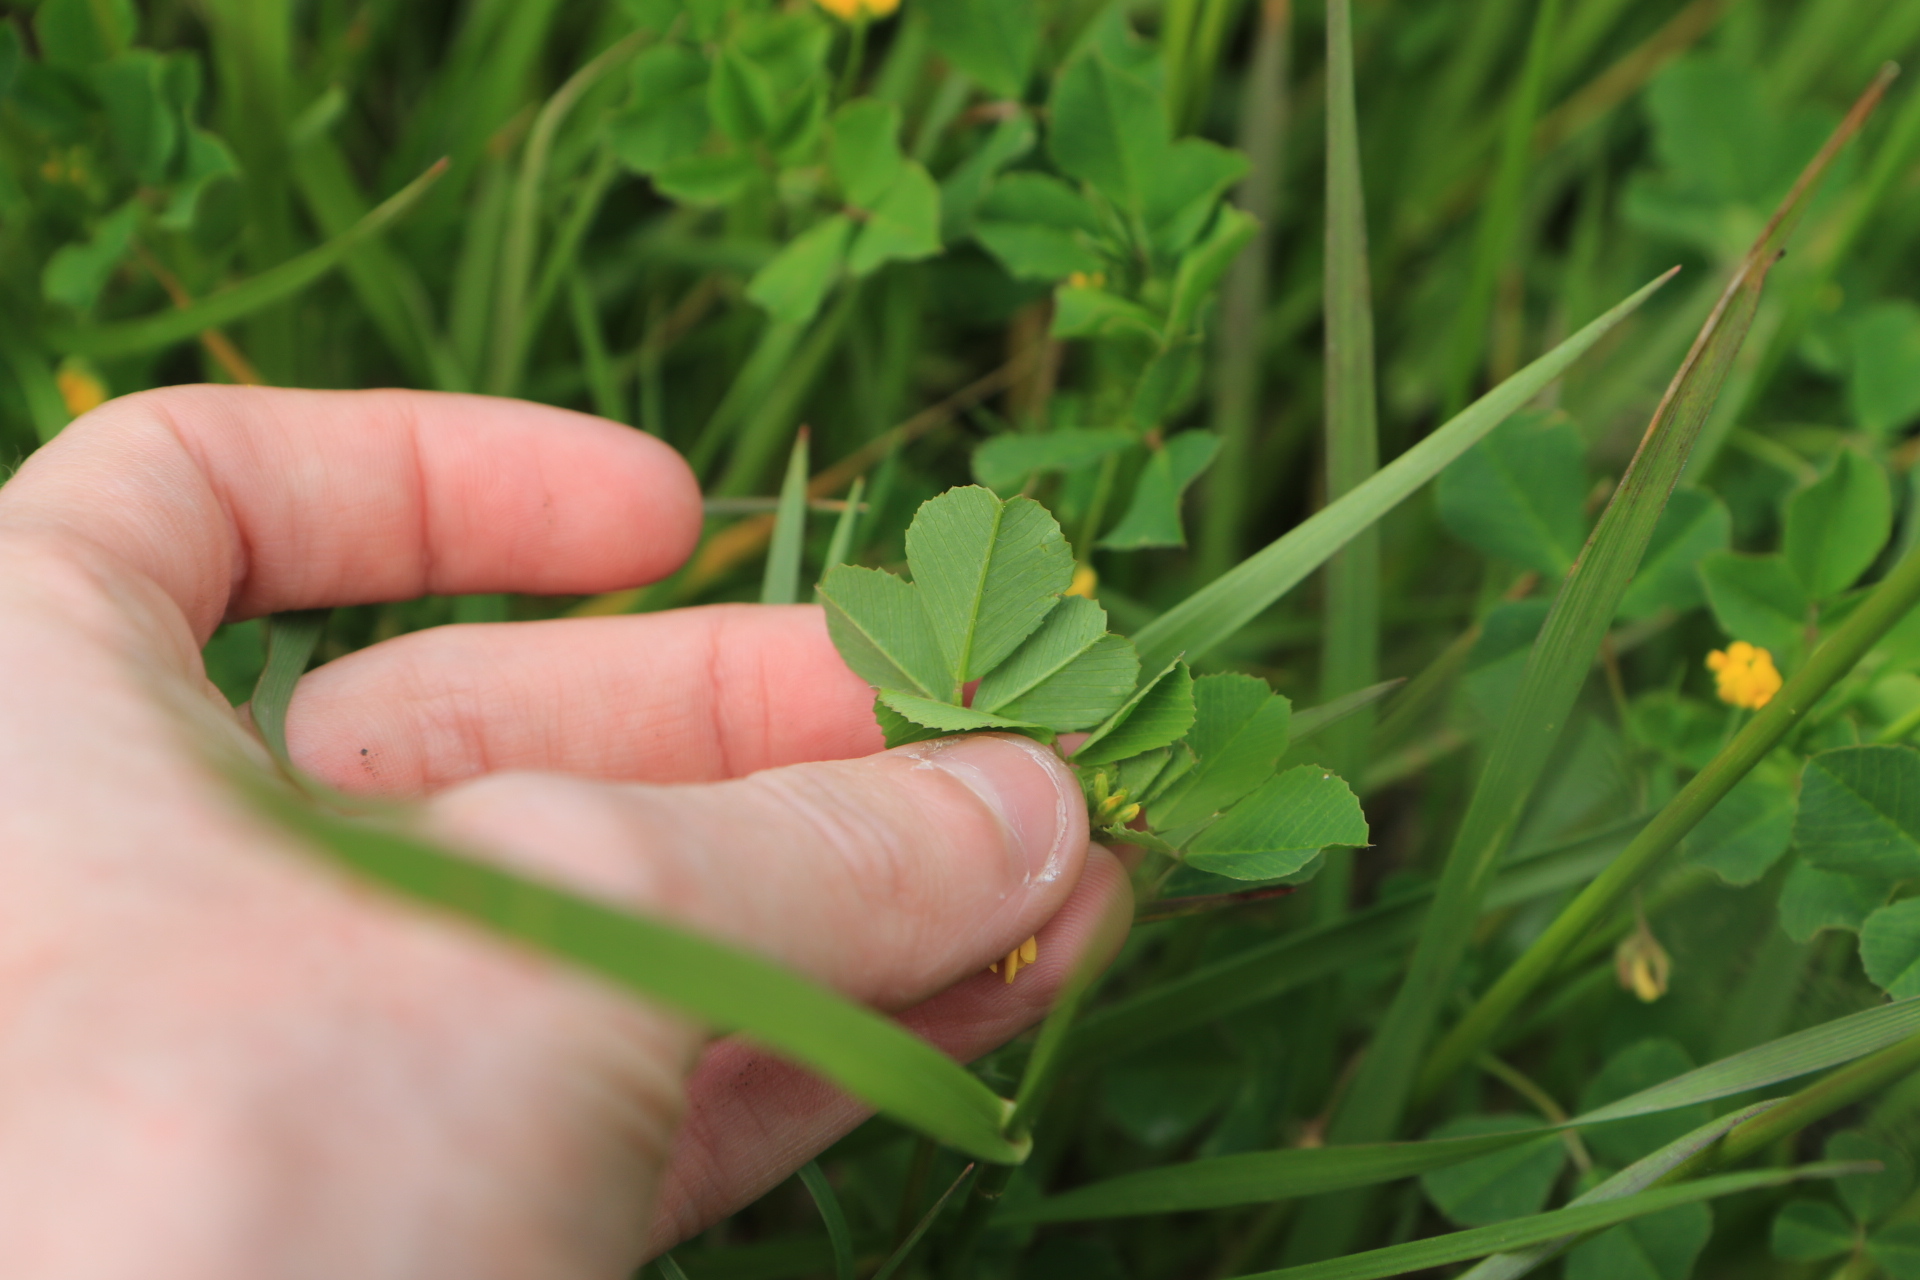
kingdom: Plantae
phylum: Tracheophyta
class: Magnoliopsida
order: Fabales
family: Fabaceae
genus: Medicago
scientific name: Medicago polymorpha
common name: Burclover
